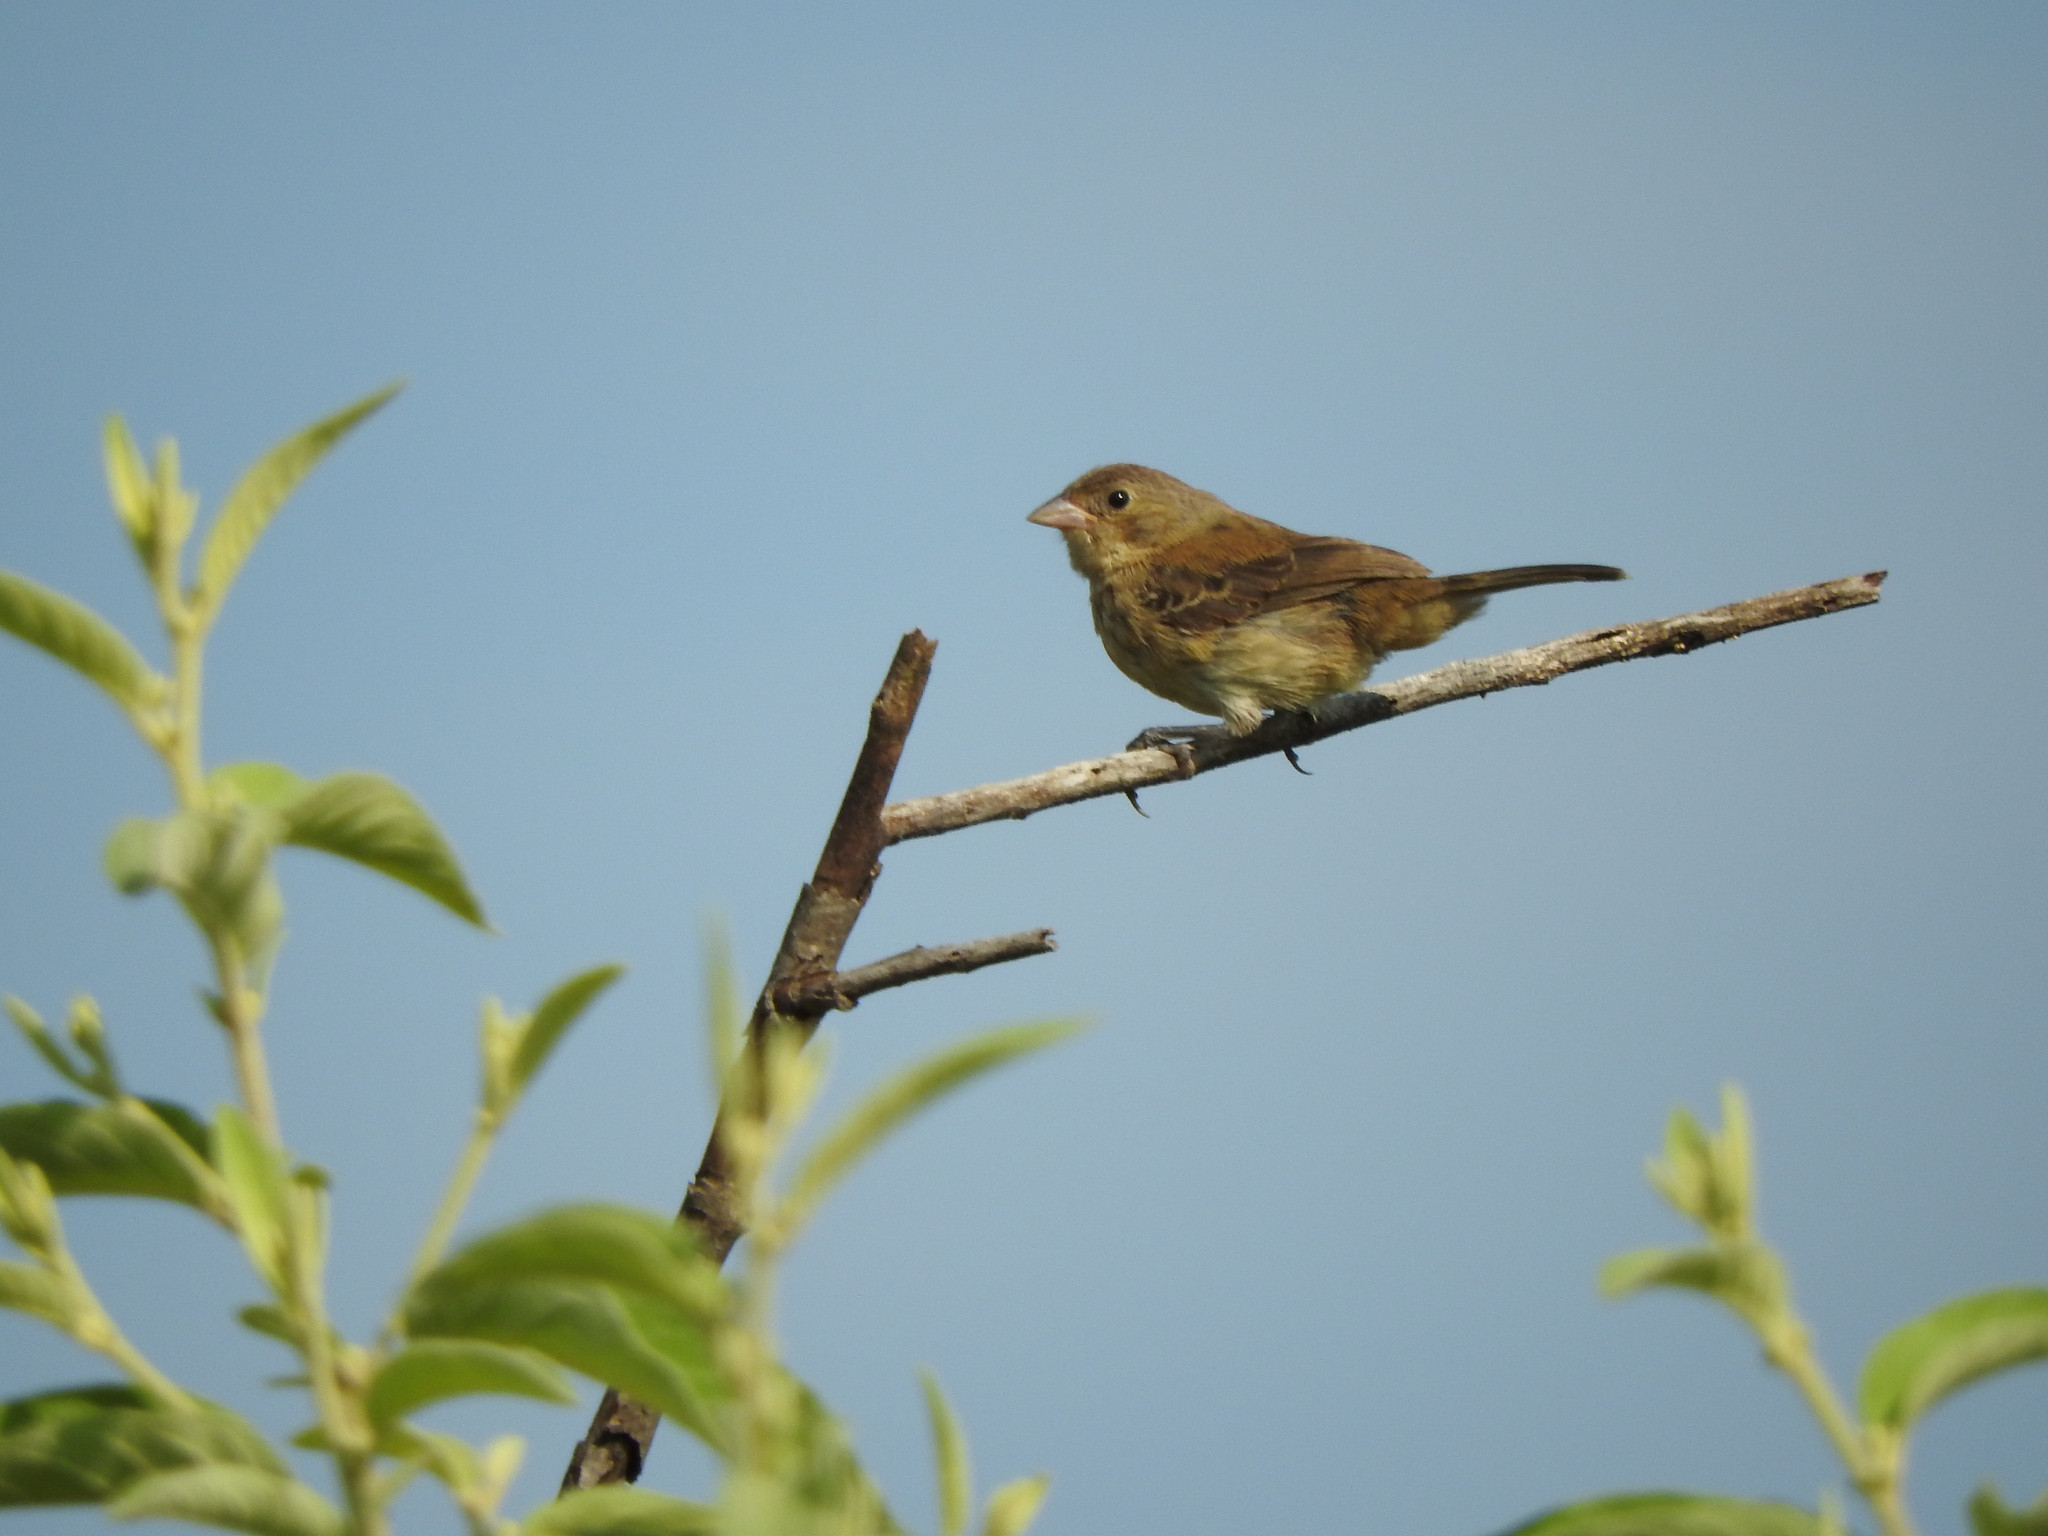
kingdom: Animalia
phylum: Chordata
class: Aves
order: Passeriformes
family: Thraupidae
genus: Volatinia
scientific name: Volatinia jacarina
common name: Blue-black grassquit
